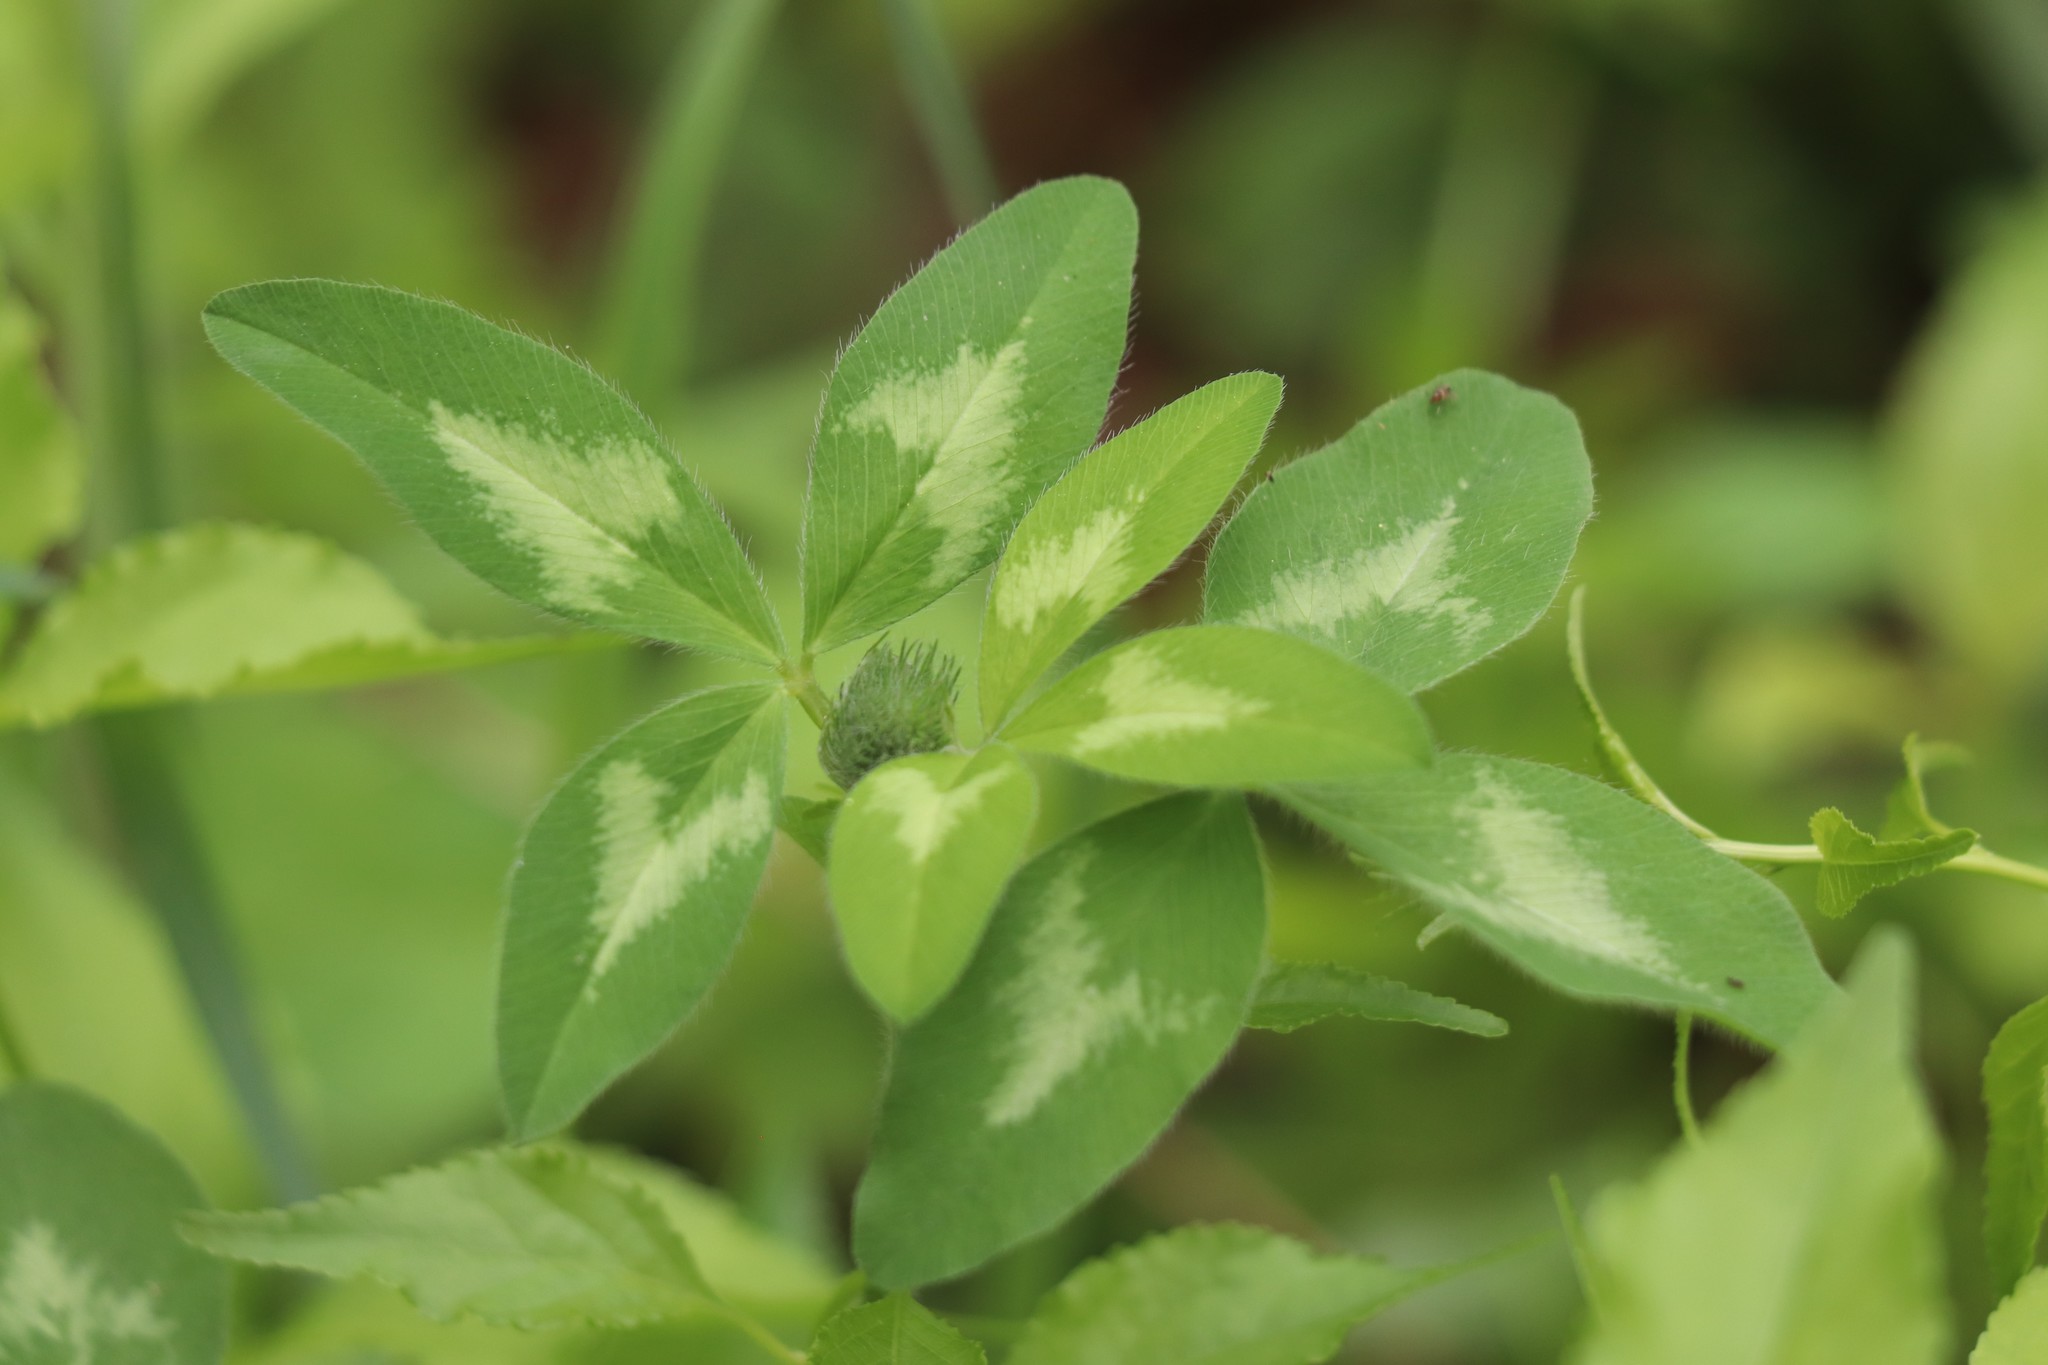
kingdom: Plantae
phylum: Tracheophyta
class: Magnoliopsida
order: Fabales
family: Fabaceae
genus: Trifolium
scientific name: Trifolium pratense
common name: Red clover
